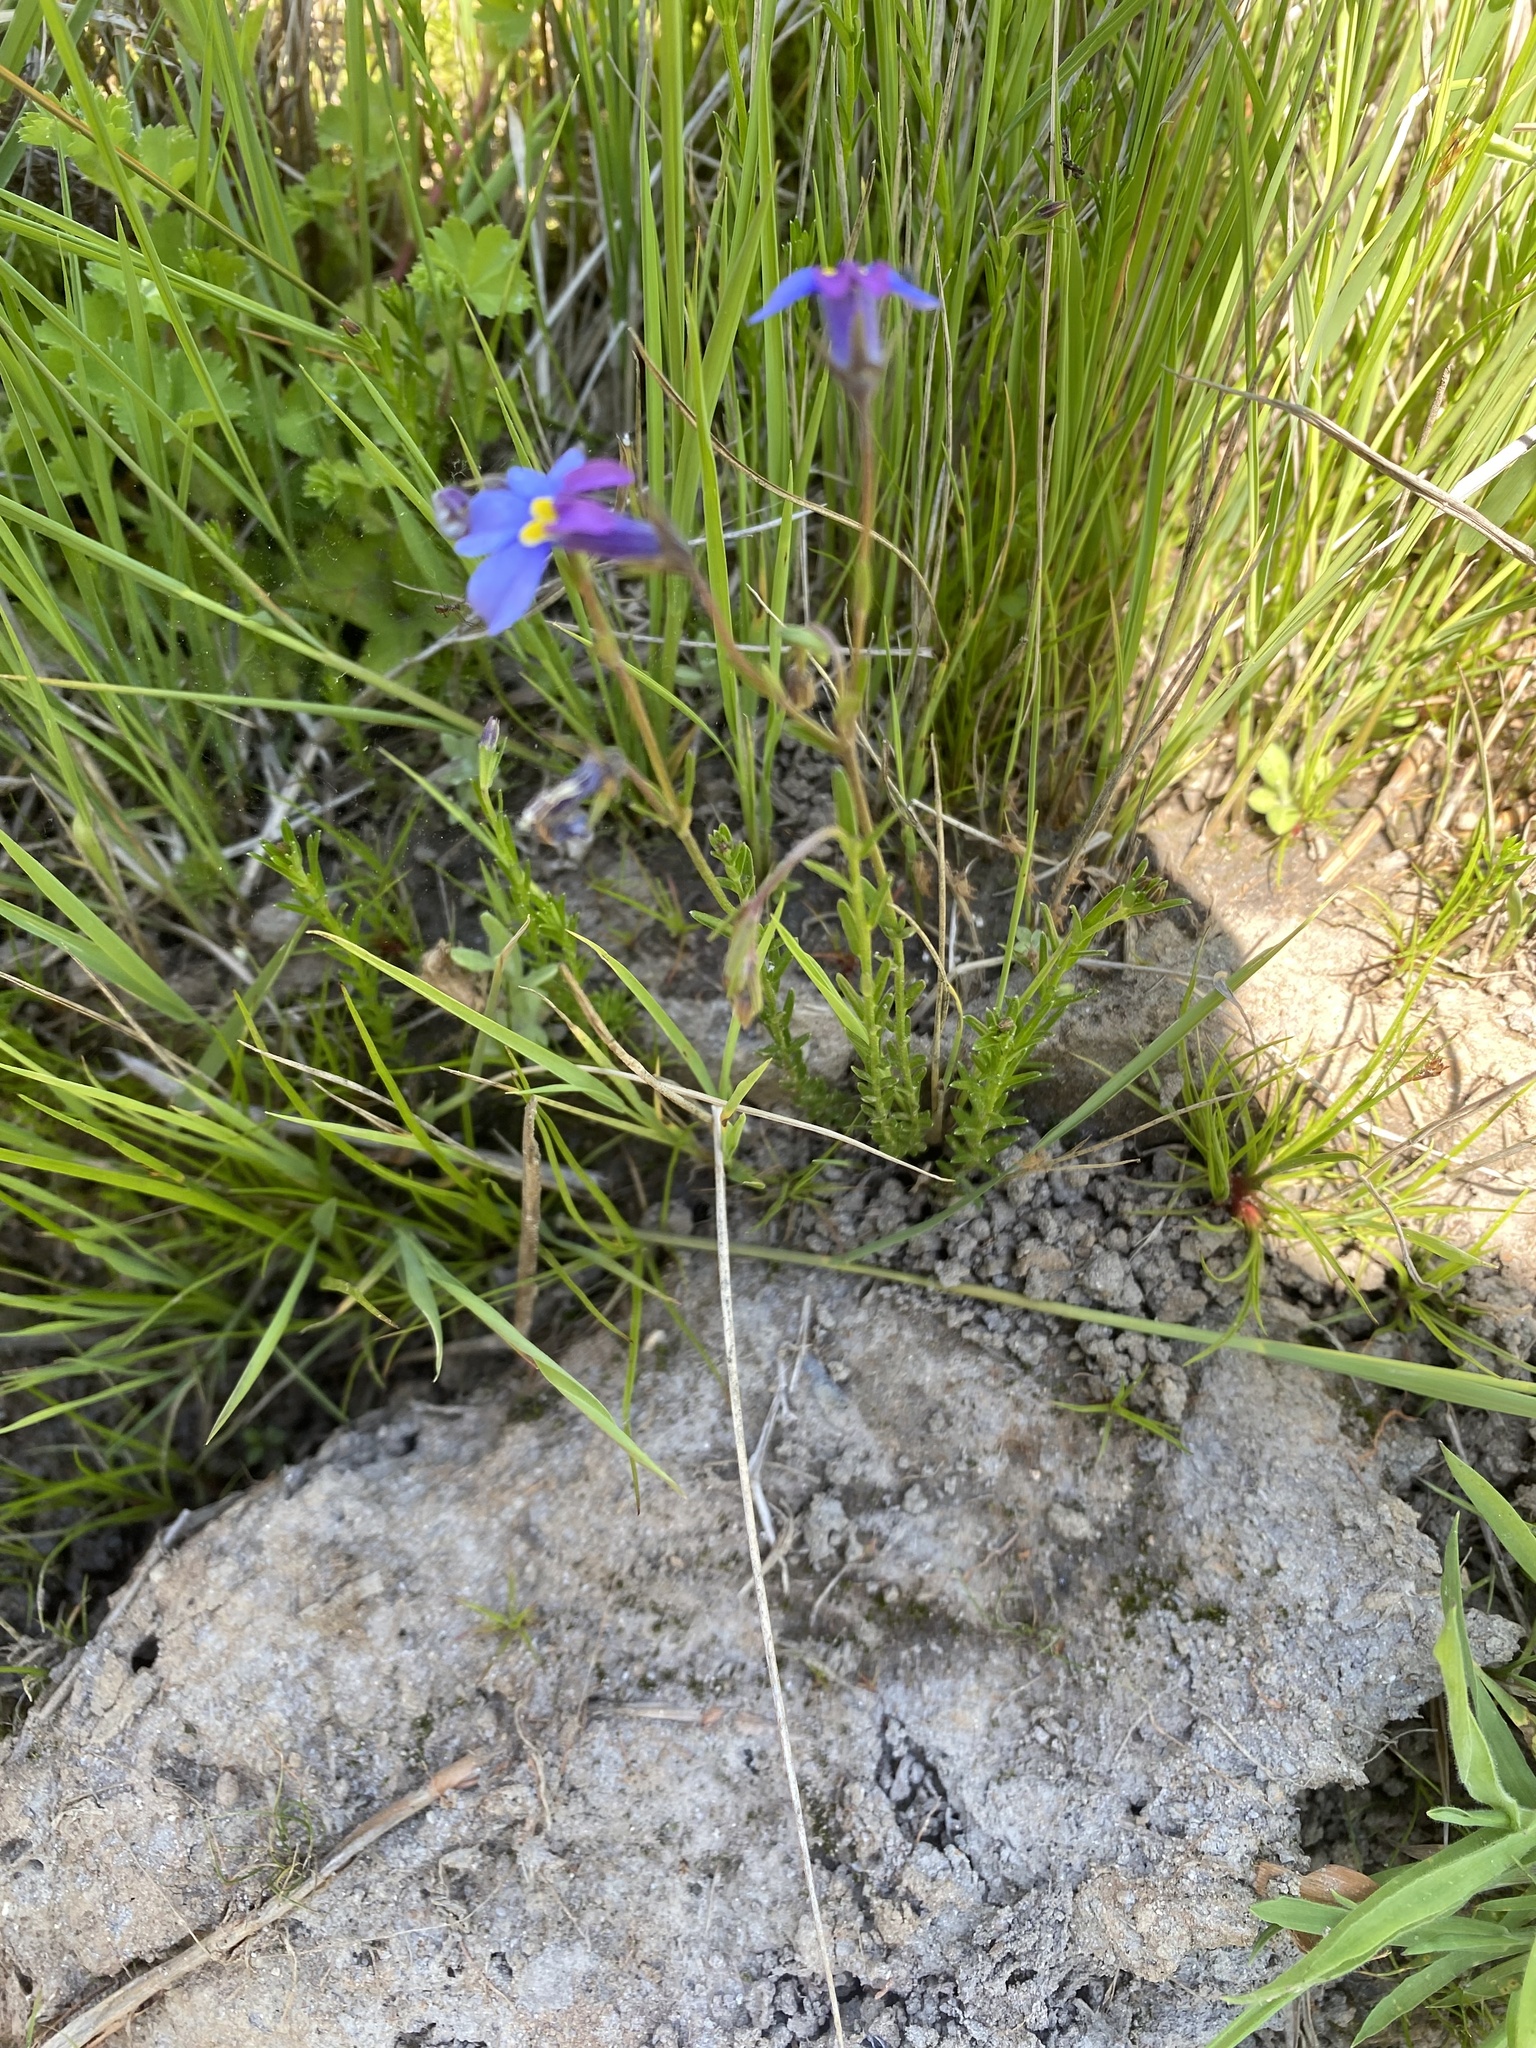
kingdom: Plantae
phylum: Tracheophyta
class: Magnoliopsida
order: Asterales
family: Campanulaceae
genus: Monopsis
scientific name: Monopsis decipiens
